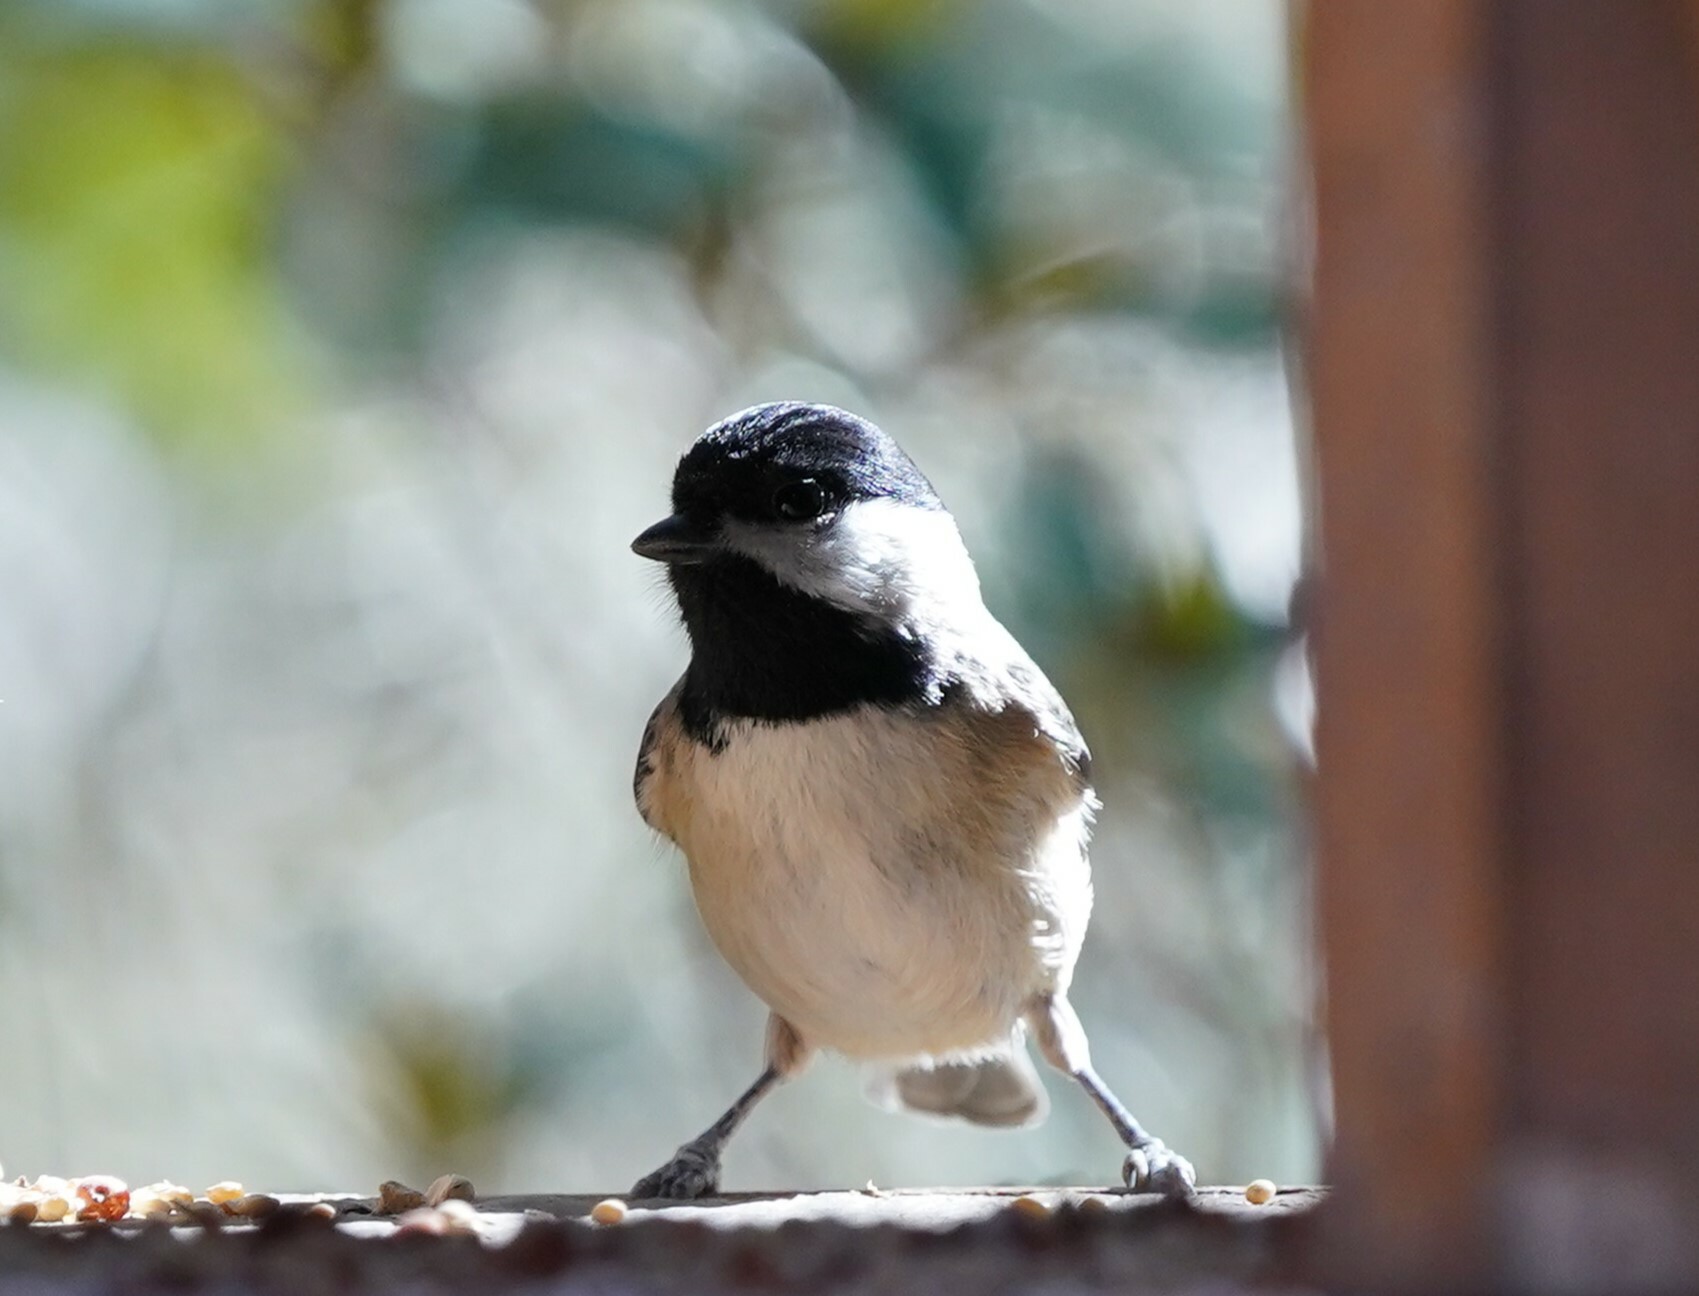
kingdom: Animalia
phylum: Chordata
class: Aves
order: Passeriformes
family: Paridae
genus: Poecile
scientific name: Poecile carolinensis
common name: Carolina chickadee
